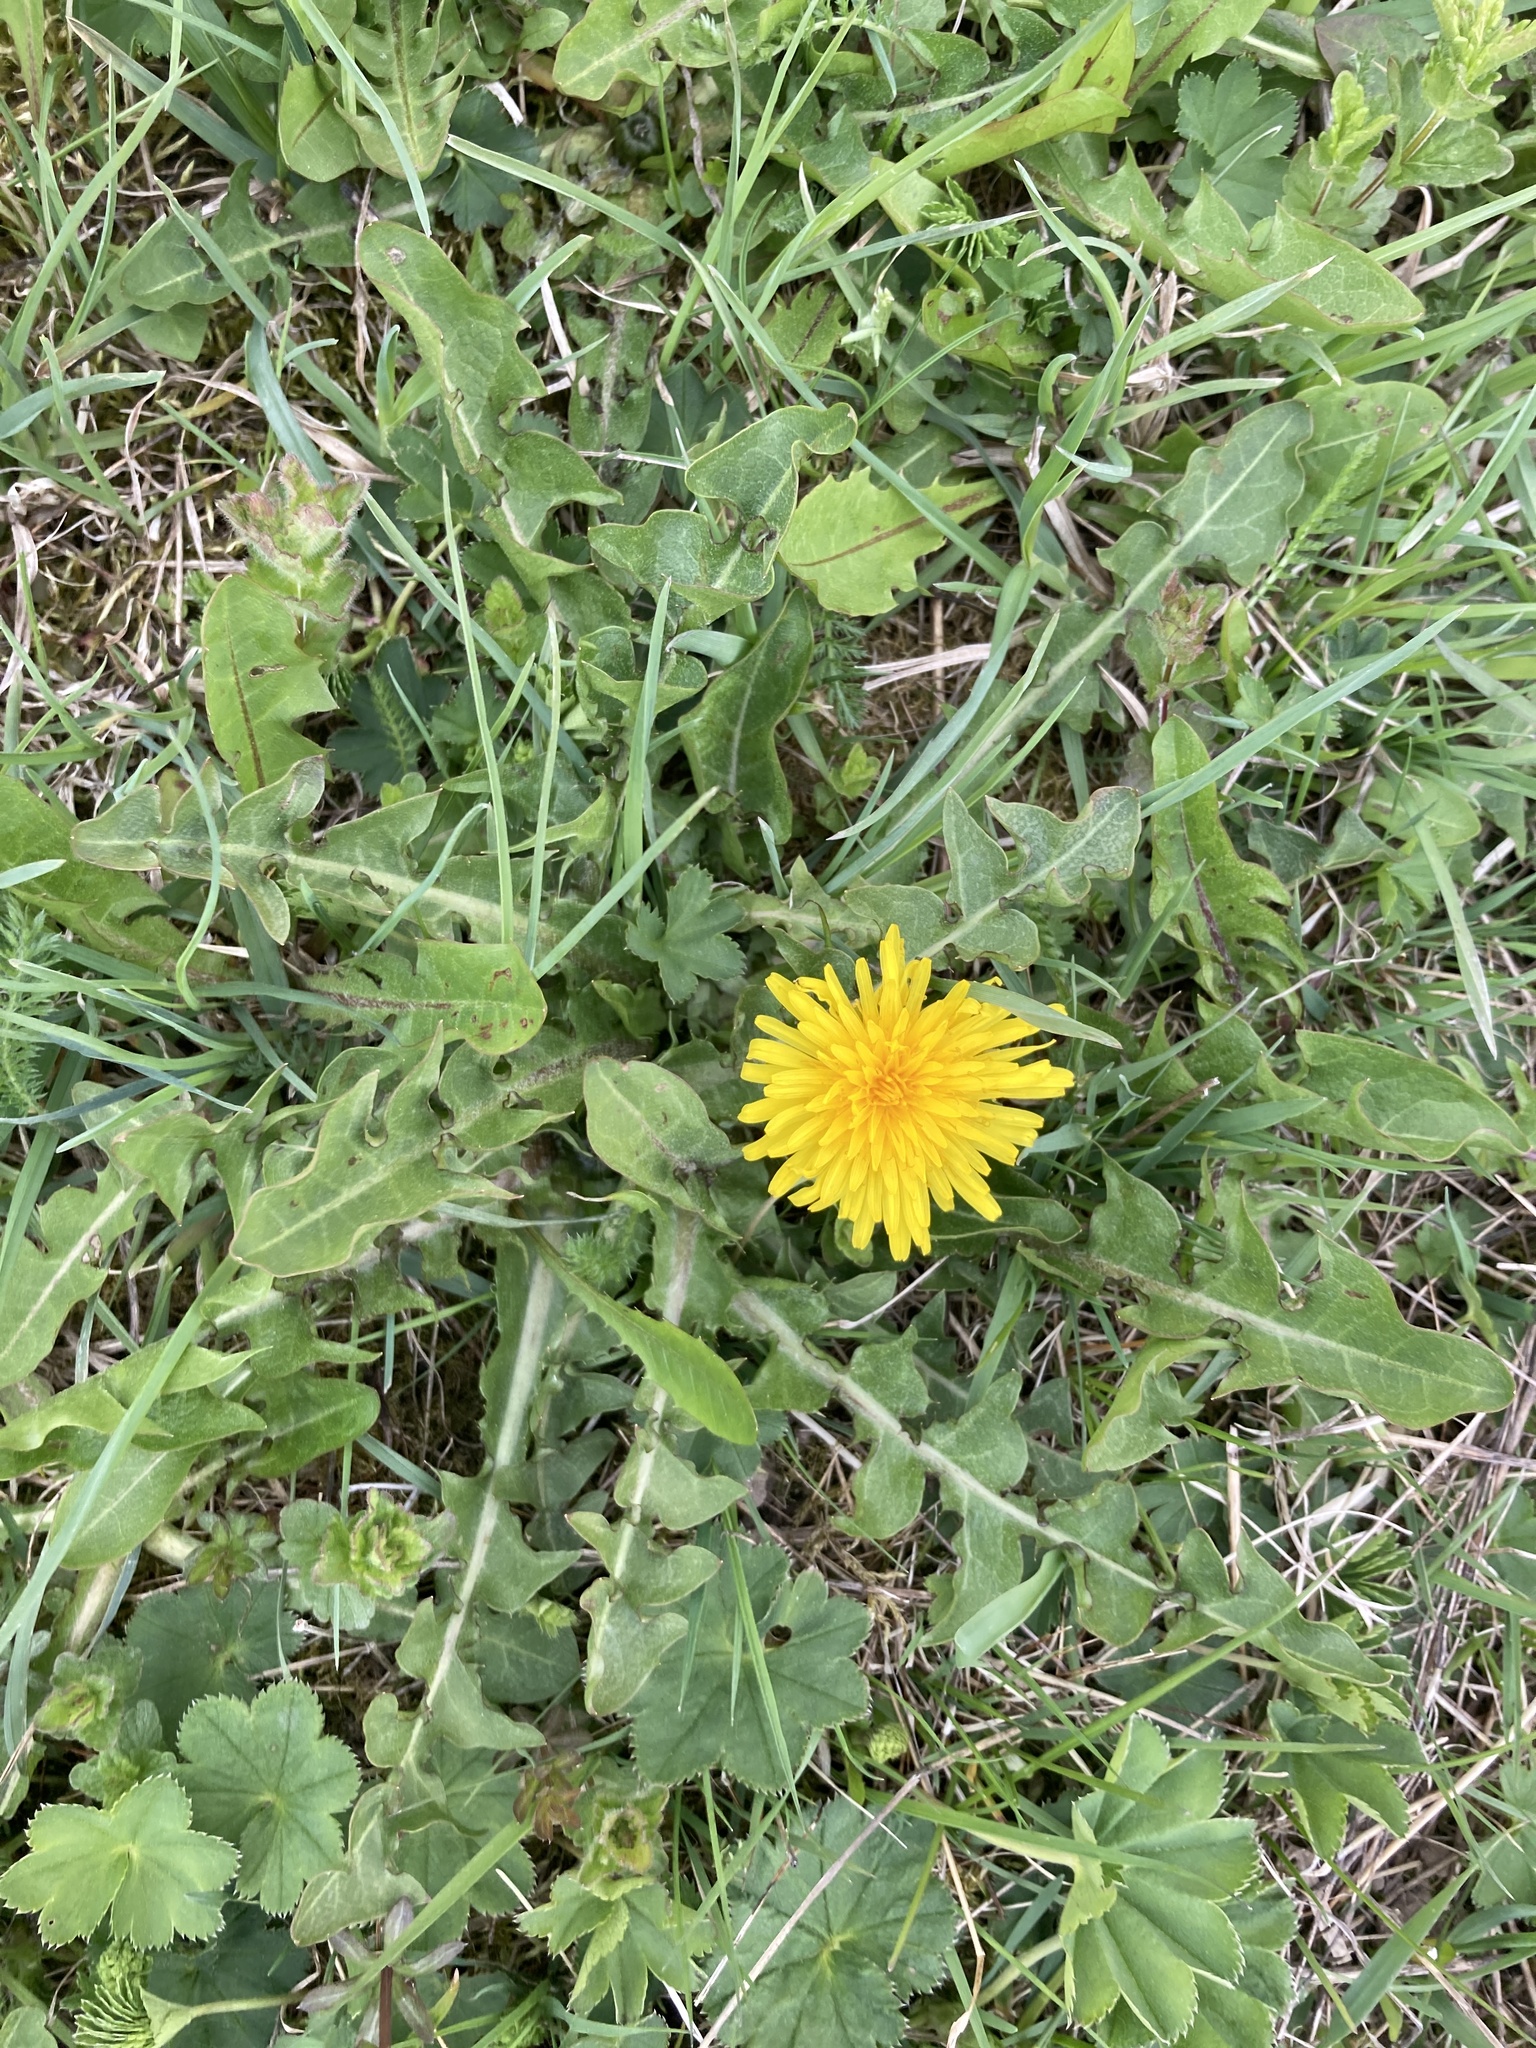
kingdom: Plantae
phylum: Tracheophyta
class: Magnoliopsida
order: Asterales
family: Asteraceae
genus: Taraxacum
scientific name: Taraxacum officinale
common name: Common dandelion
